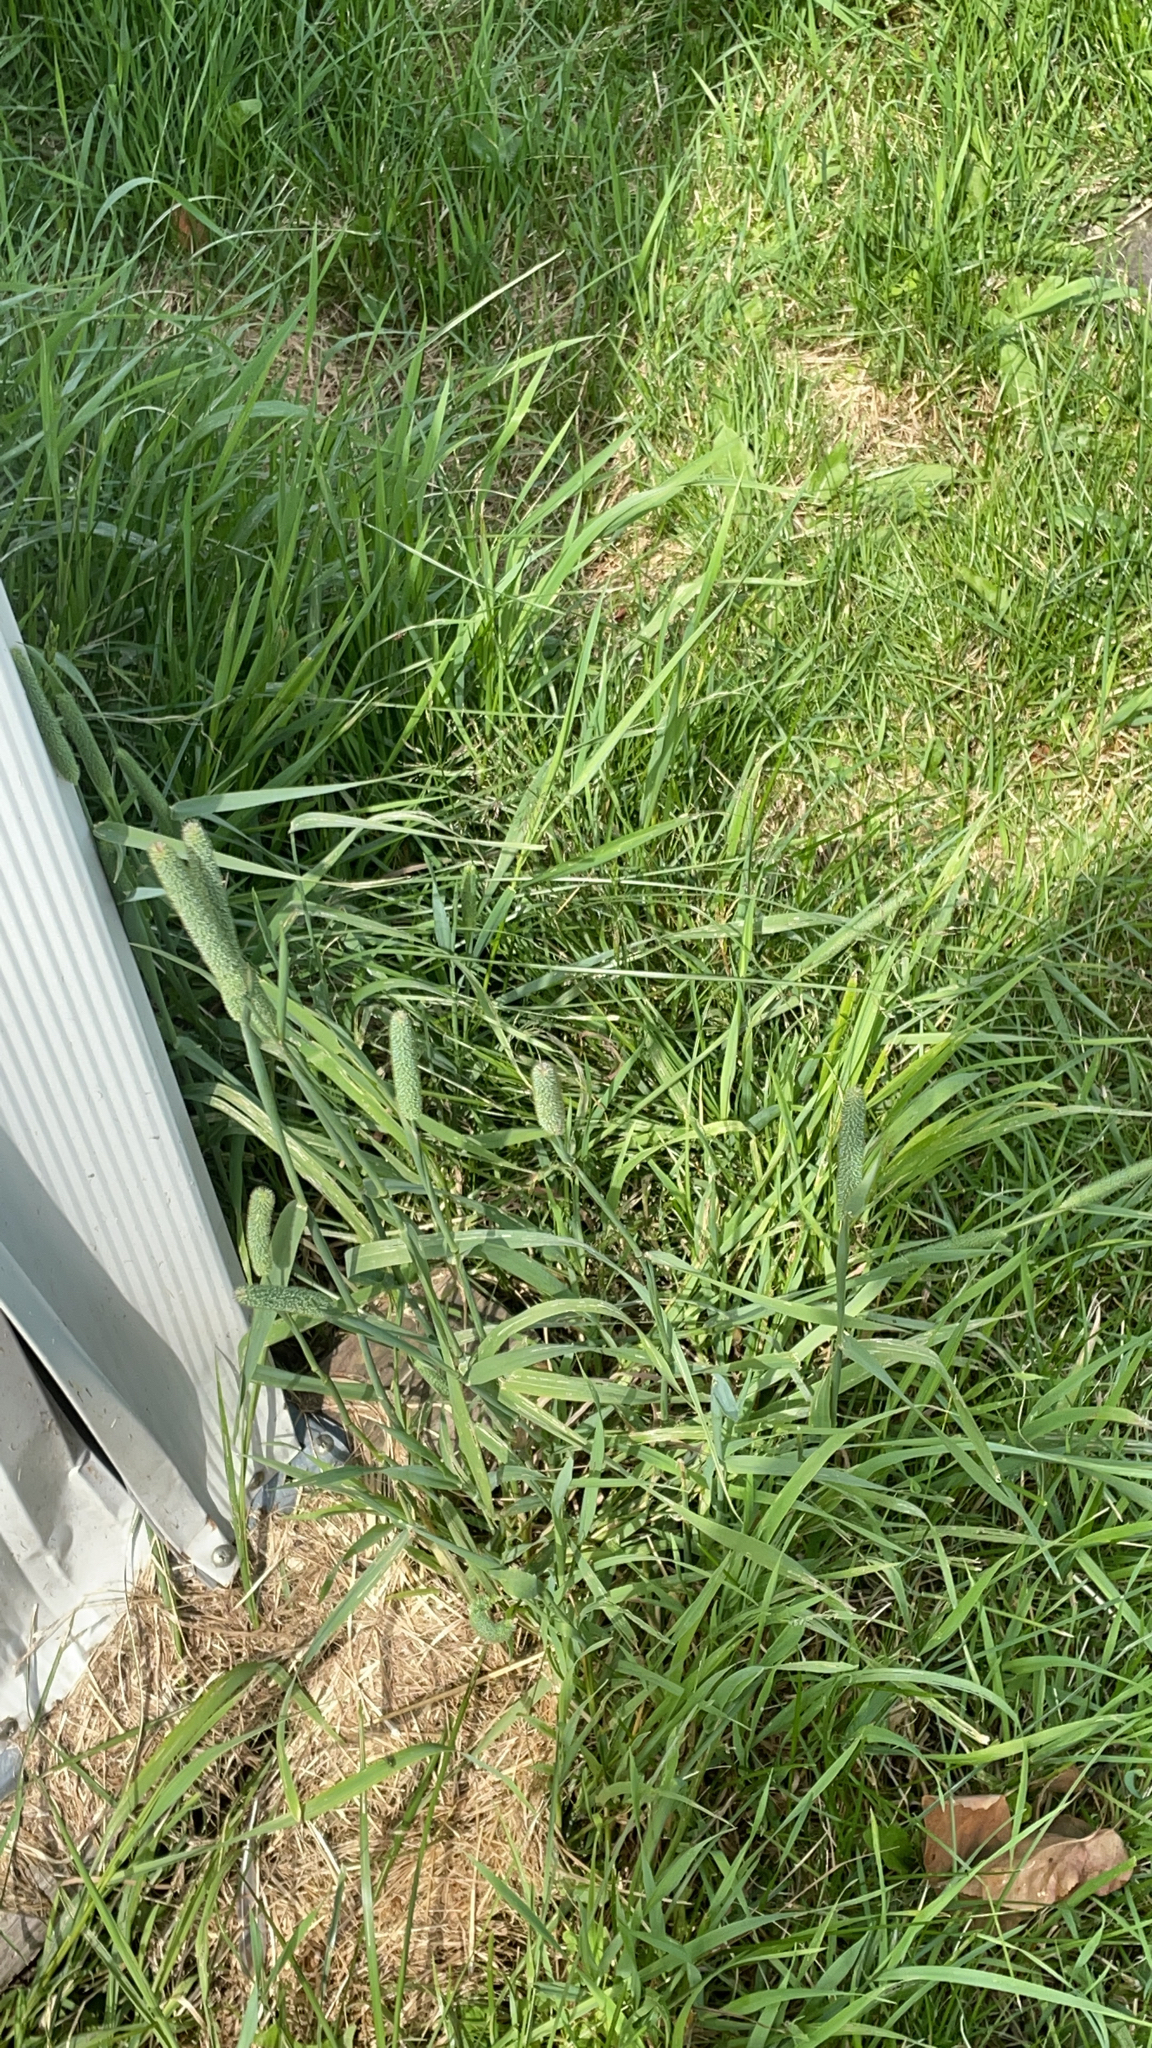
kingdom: Plantae
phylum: Tracheophyta
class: Liliopsida
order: Poales
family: Poaceae
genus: Phleum
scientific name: Phleum pratense
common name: Timothy grass
